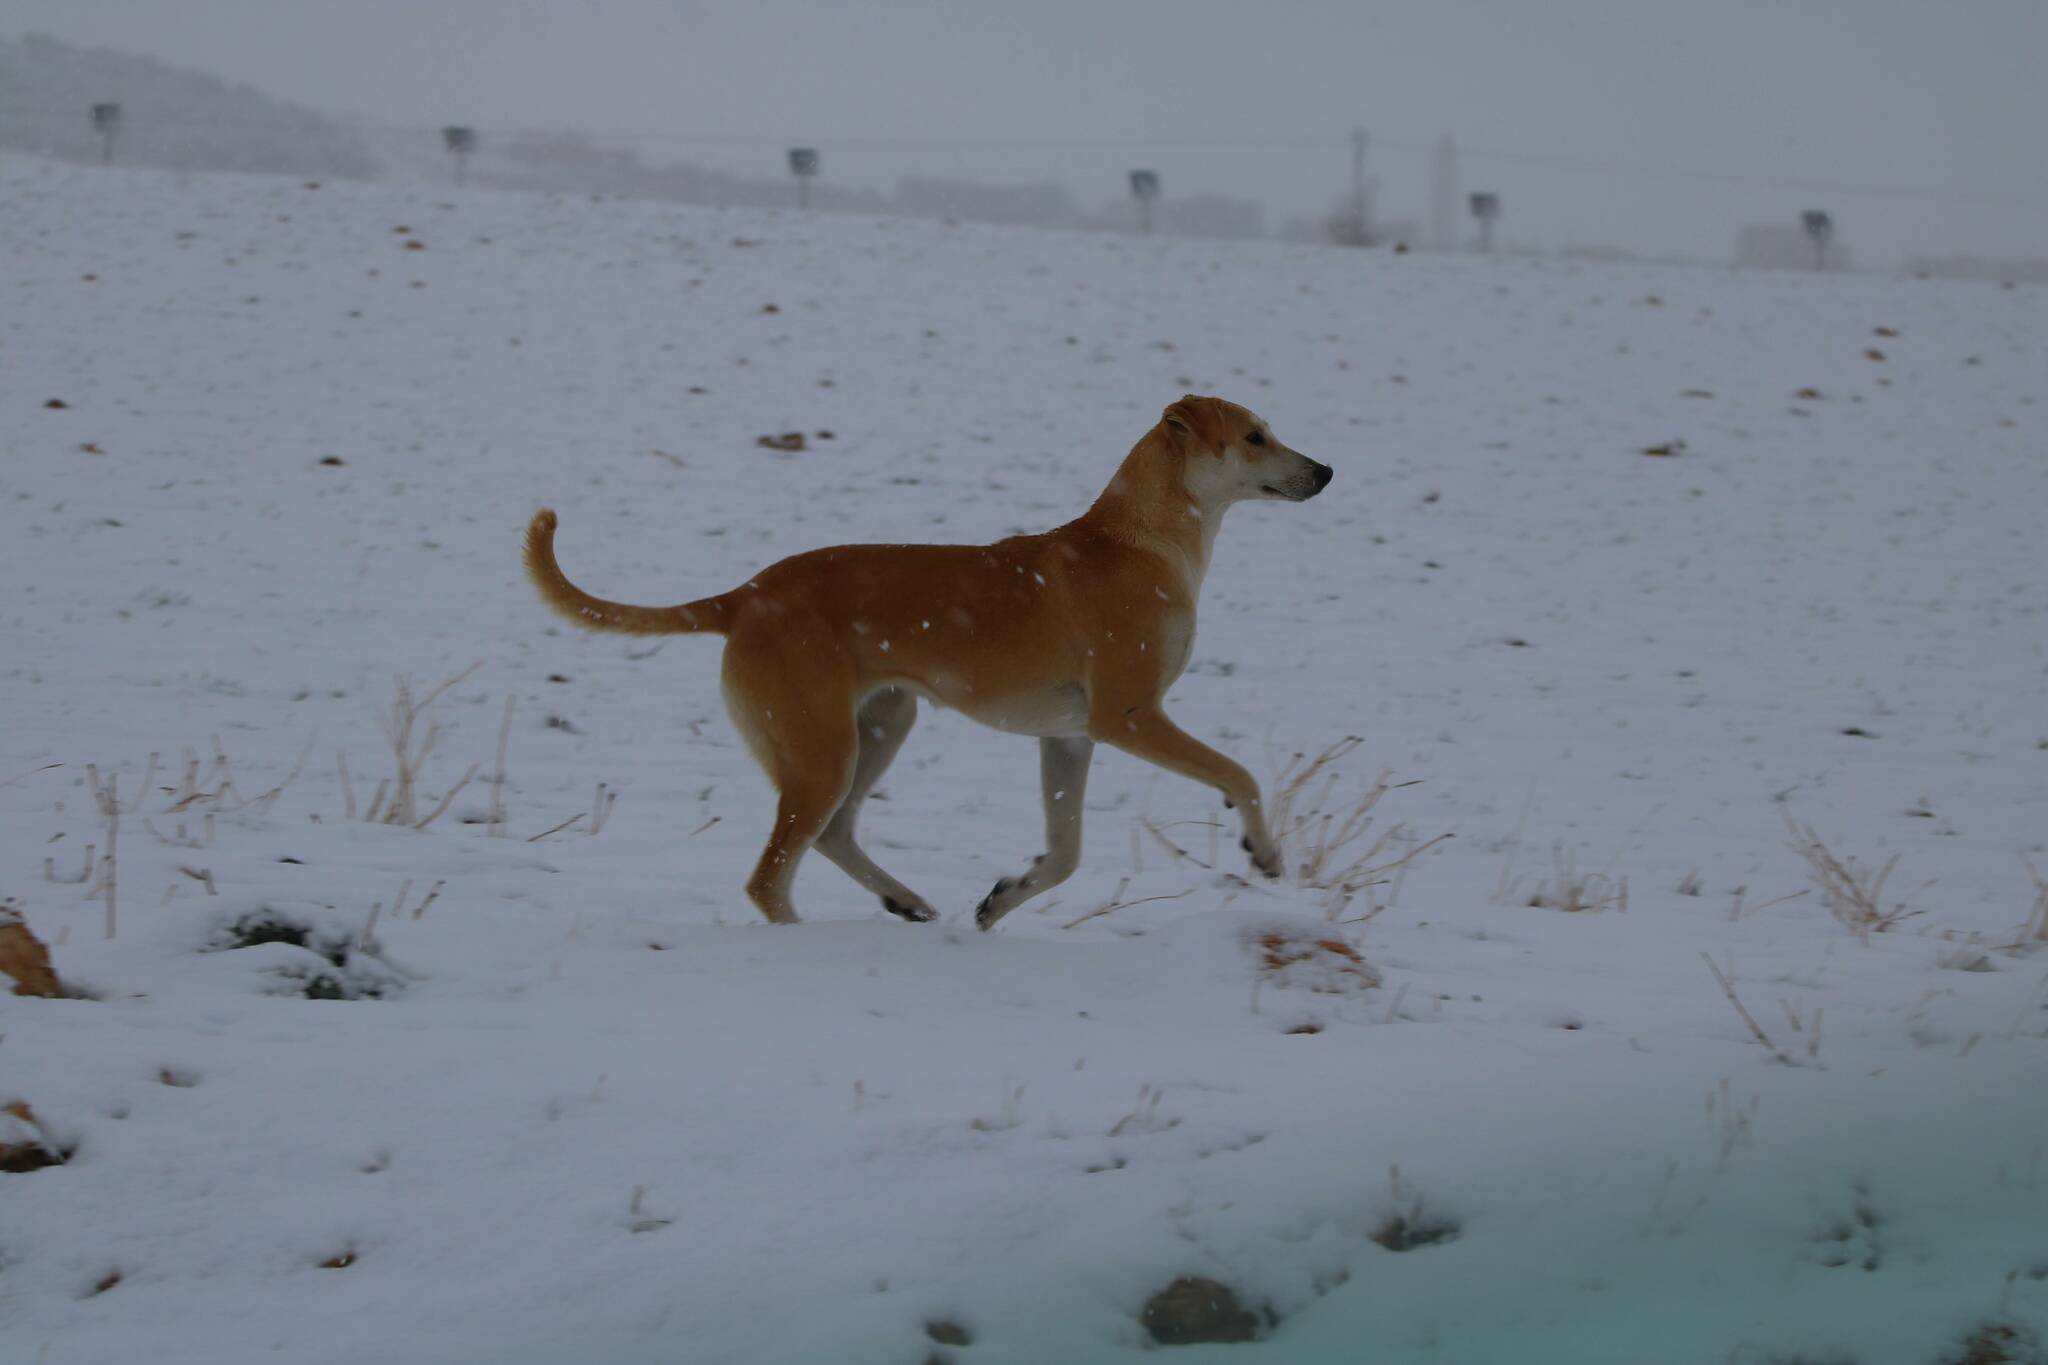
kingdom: Animalia
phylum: Chordata
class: Mammalia
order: Carnivora
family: Canidae
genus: Canis
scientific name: Canis lupus
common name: Gray wolf
